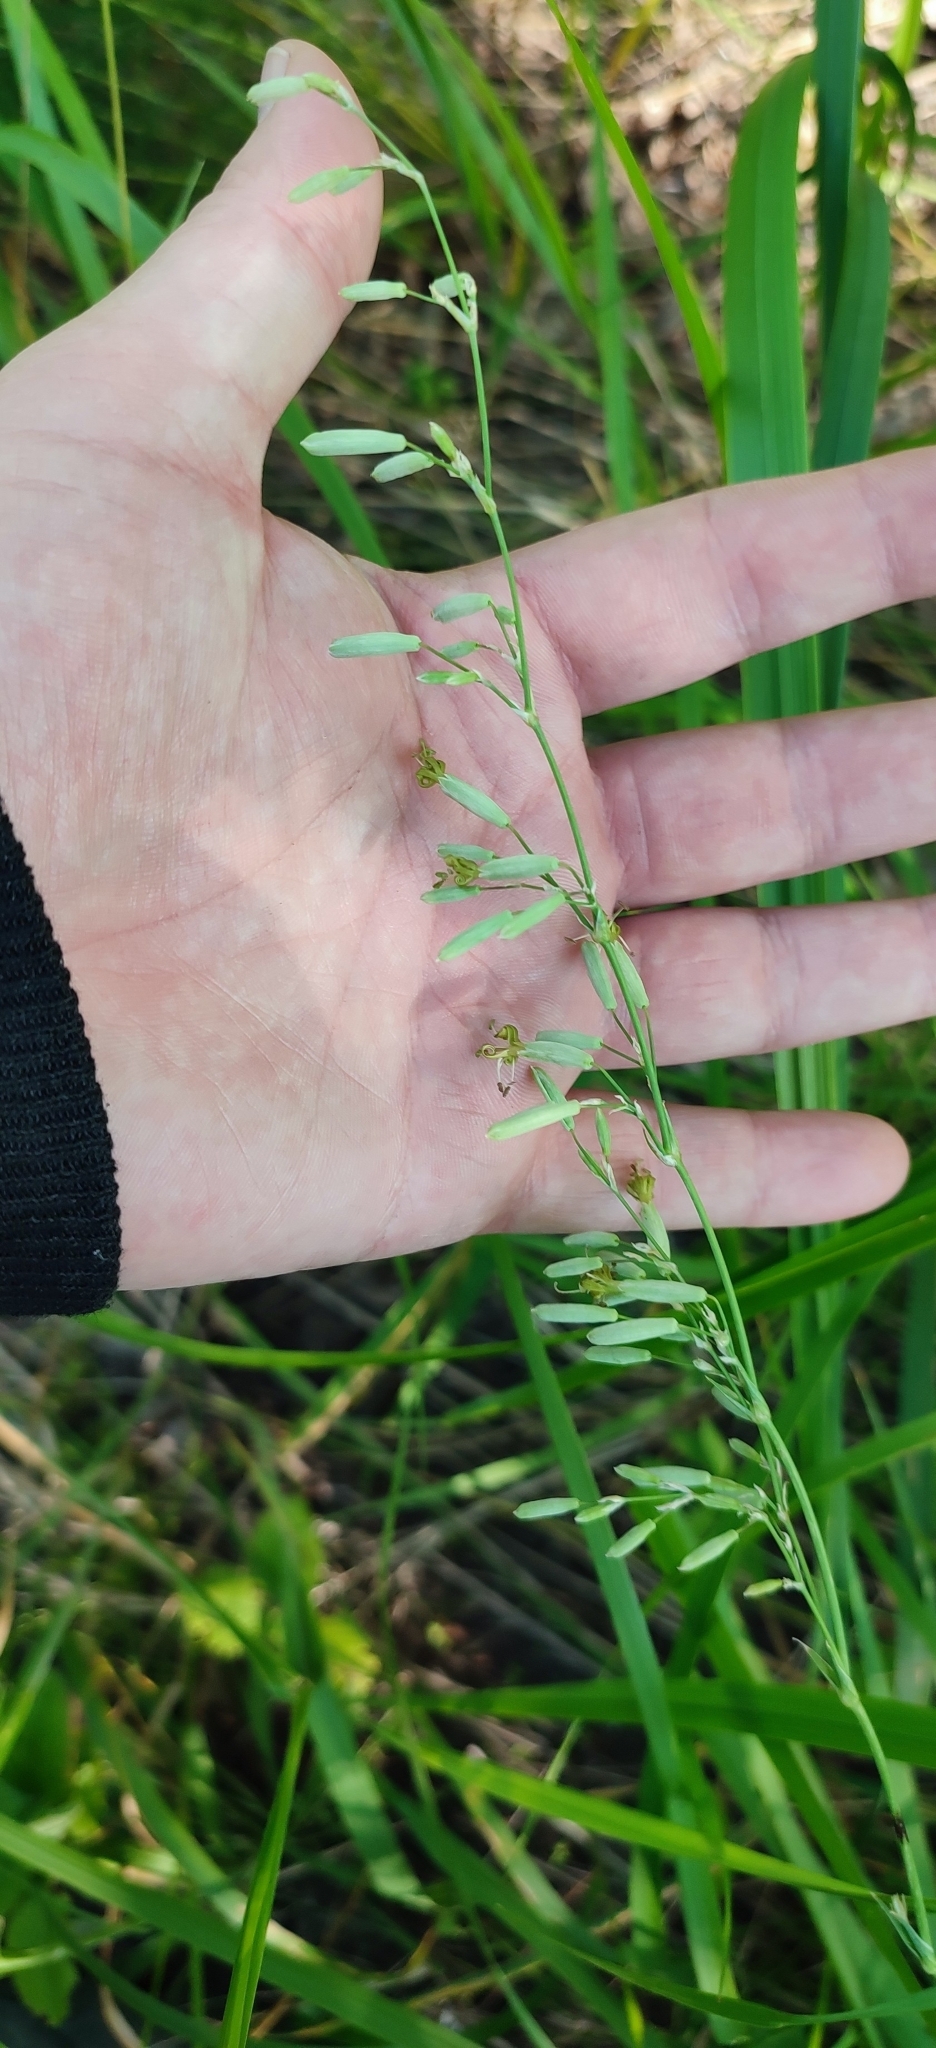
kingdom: Plantae
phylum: Tracheophyta
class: Magnoliopsida
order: Caryophyllales
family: Caryophyllaceae
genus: Silene
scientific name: Silene chlorantha
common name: Yellowgreen catchfly
